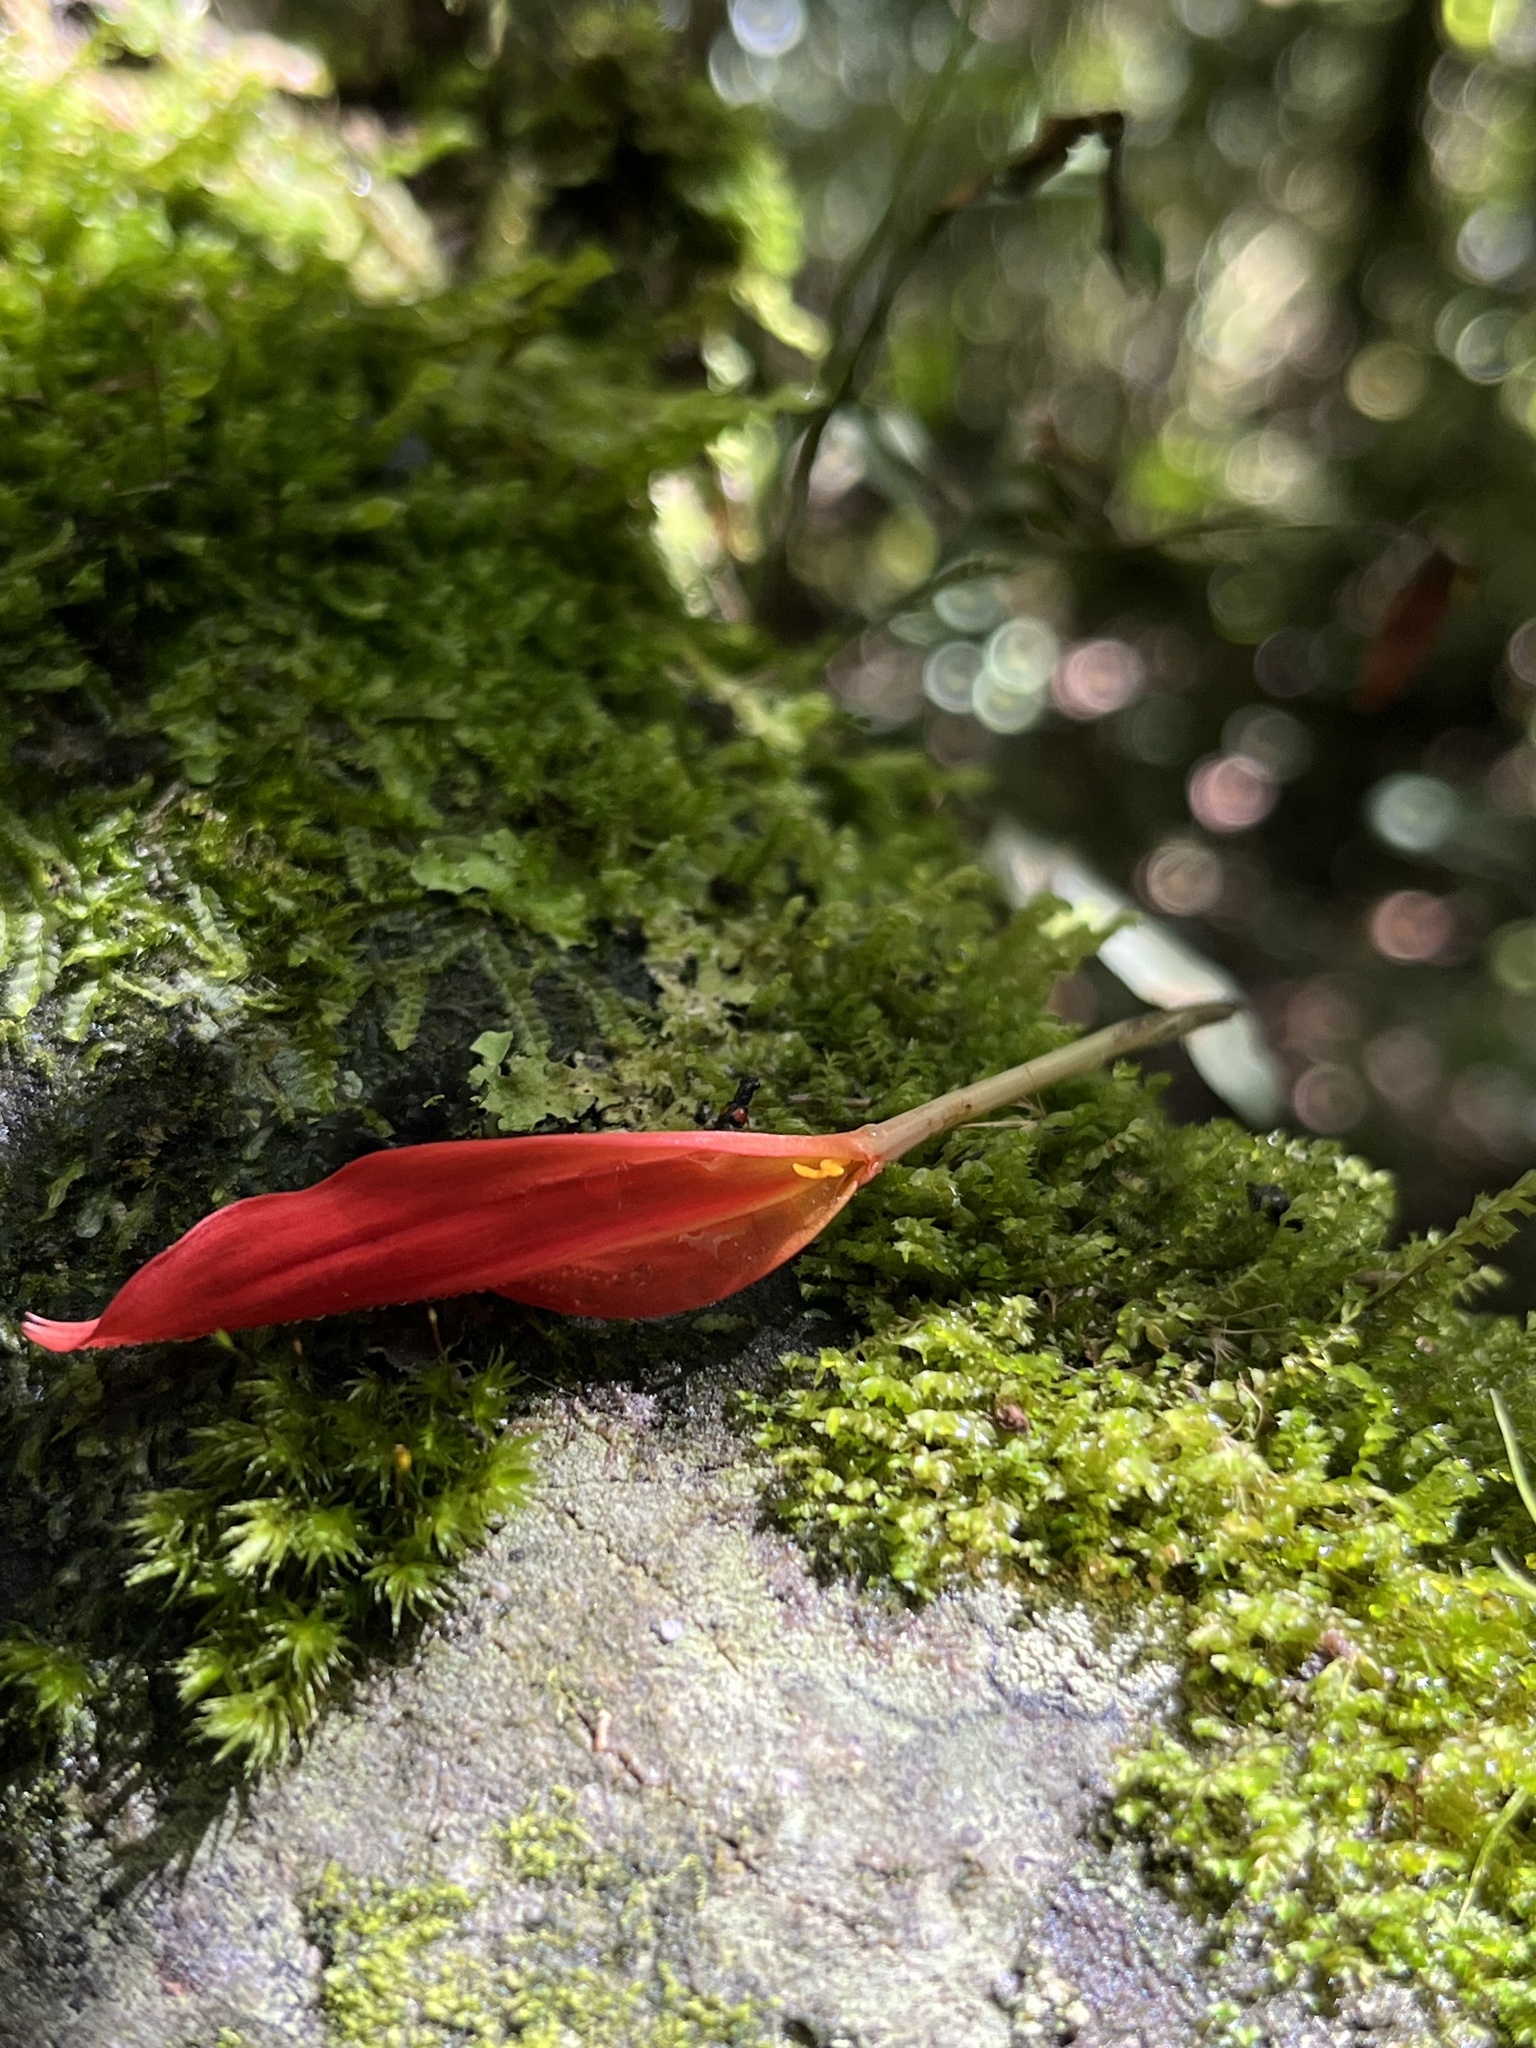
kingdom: Plantae
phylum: Tracheophyta
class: Magnoliopsida
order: Asterales
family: Asteraceae
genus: Mutisia
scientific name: Mutisia clematis
